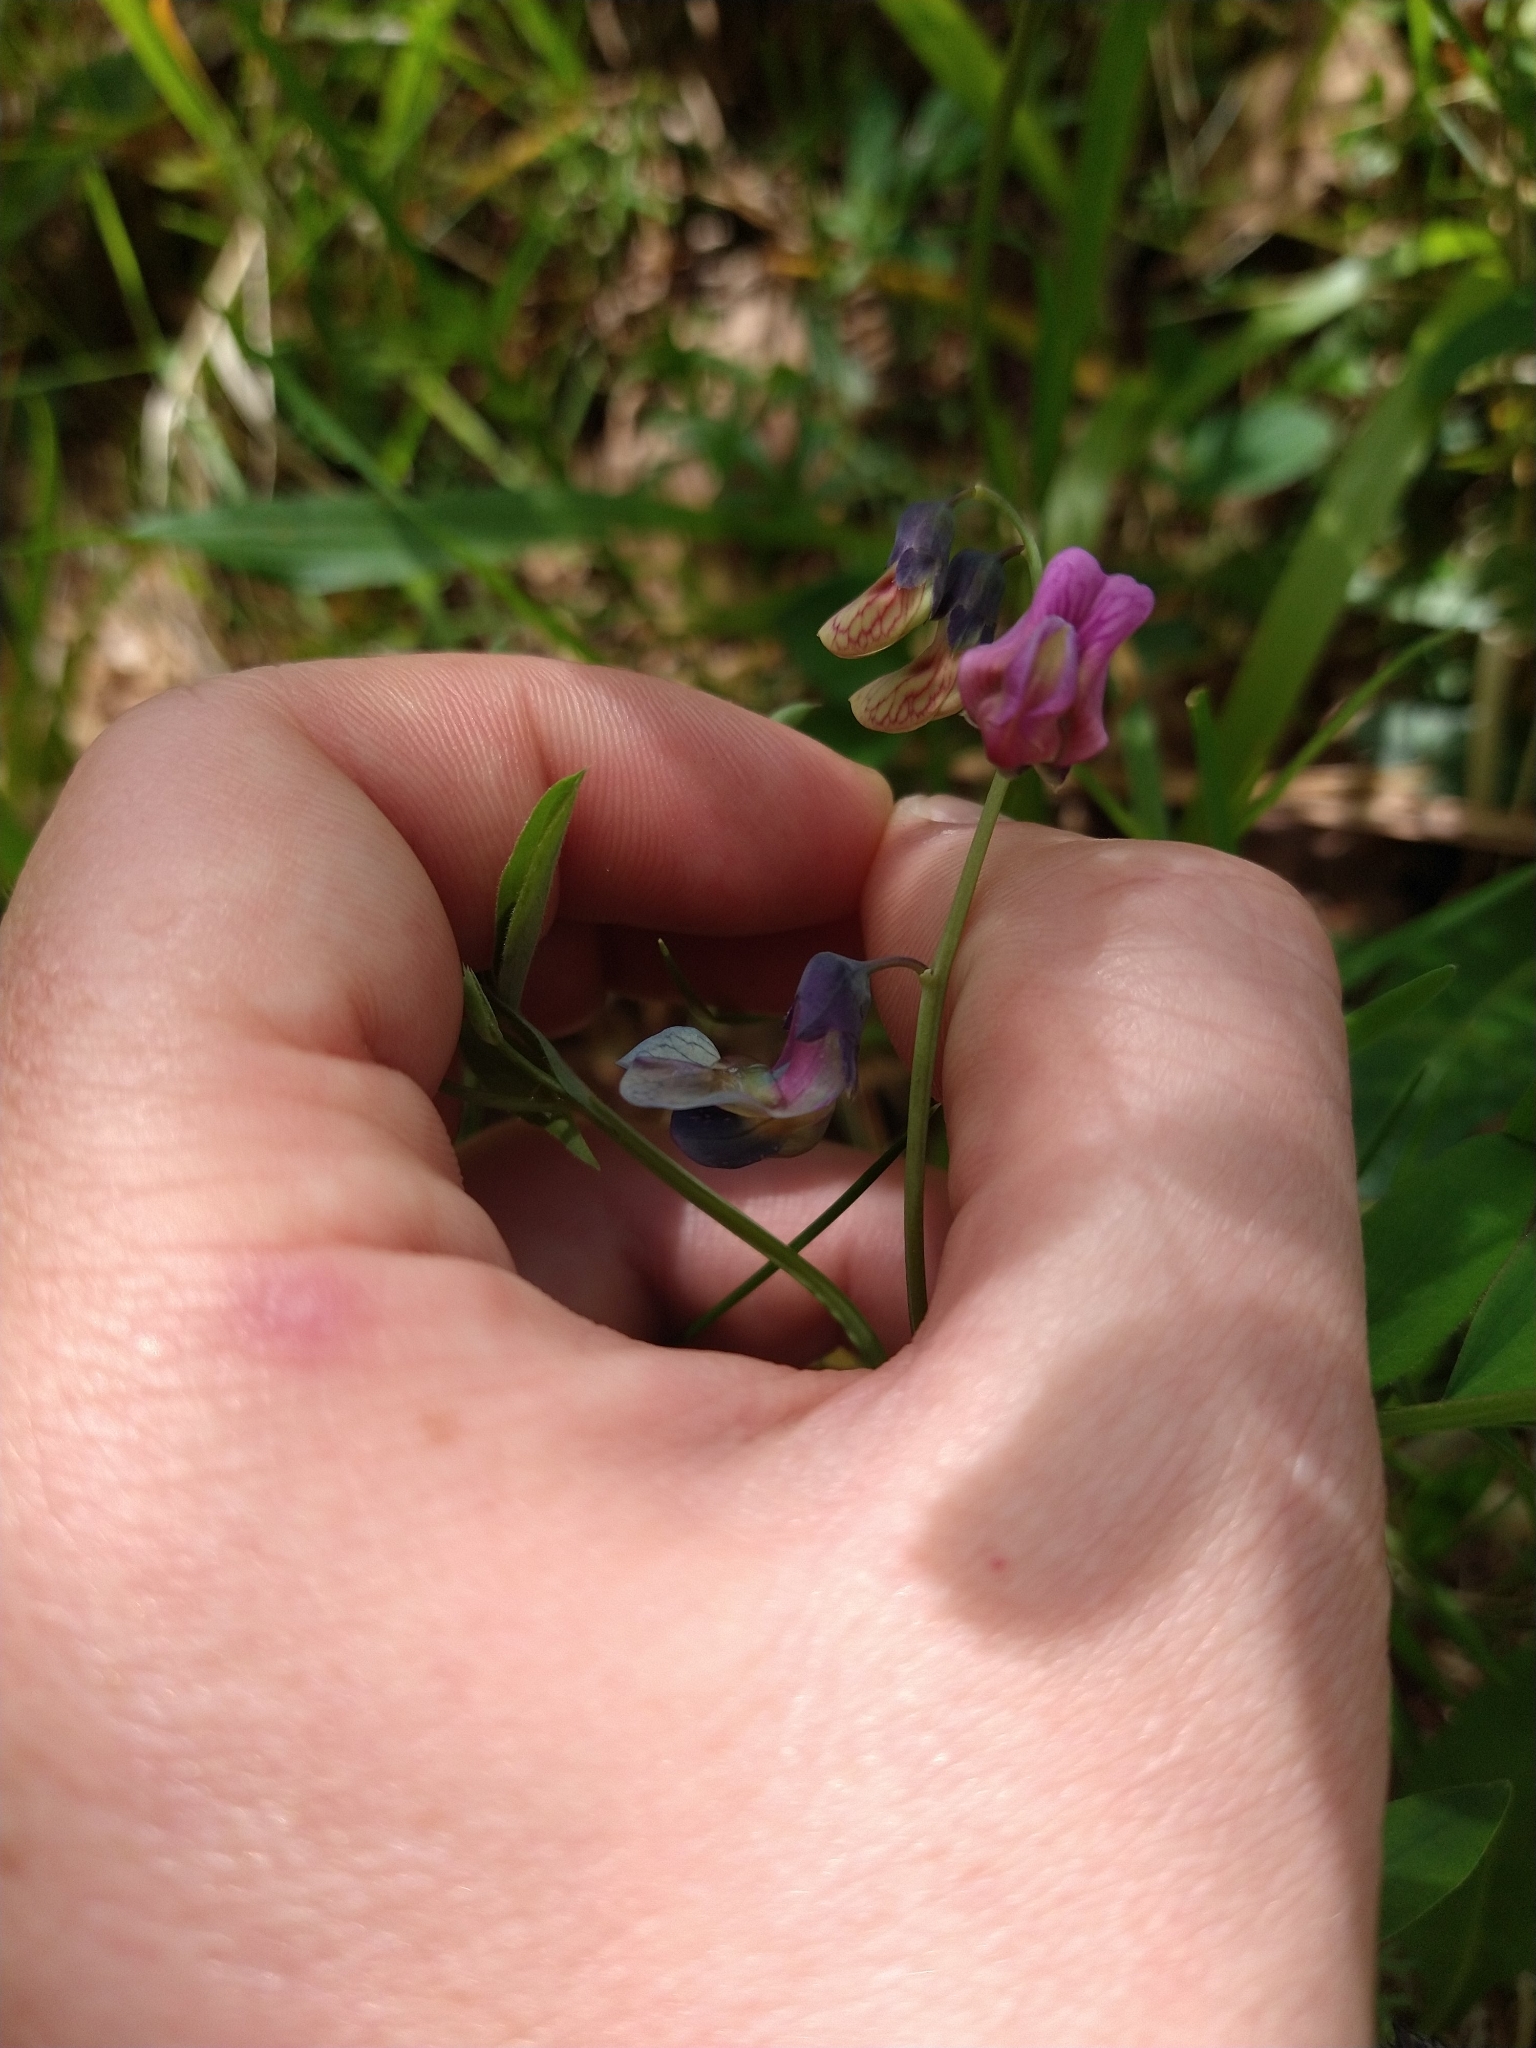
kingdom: Plantae
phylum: Tracheophyta
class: Magnoliopsida
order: Fabales
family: Fabaceae
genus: Lathyrus
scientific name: Lathyrus linifolius
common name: Bitter-vetch
